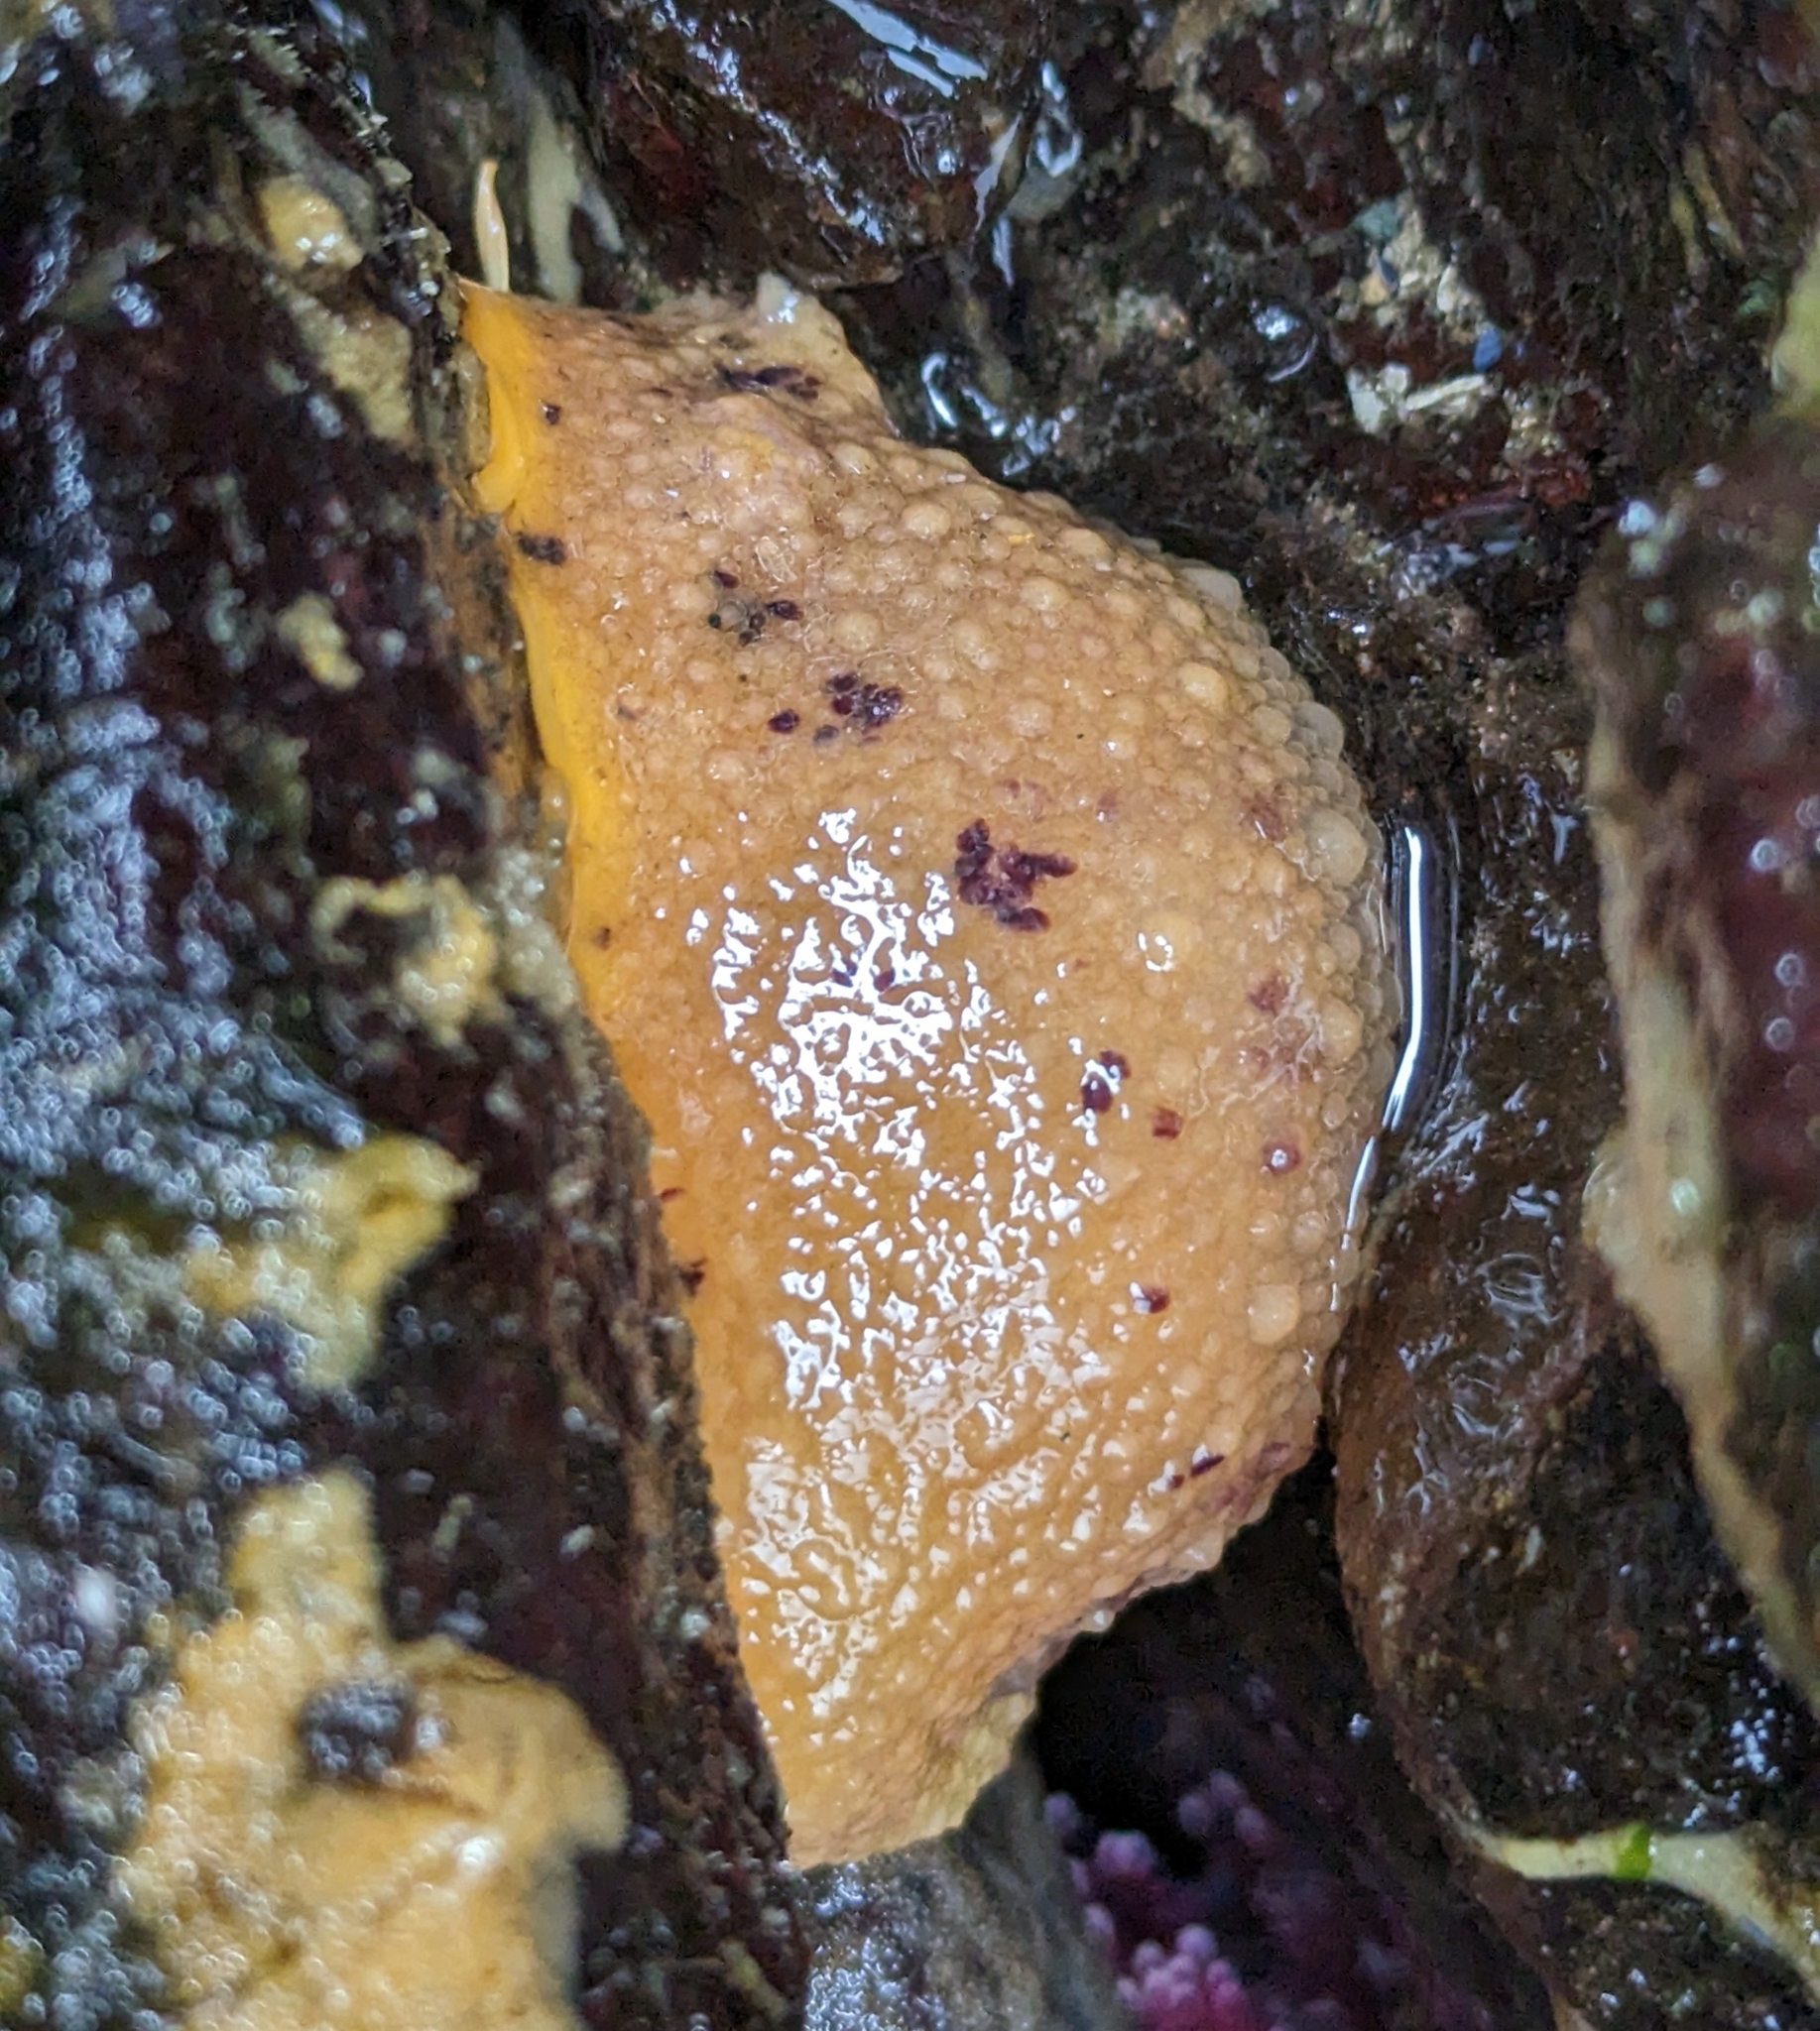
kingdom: Animalia
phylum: Mollusca
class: Gastropoda
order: Nudibranchia
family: Dorididae
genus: Doris
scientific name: Doris montereyensis
